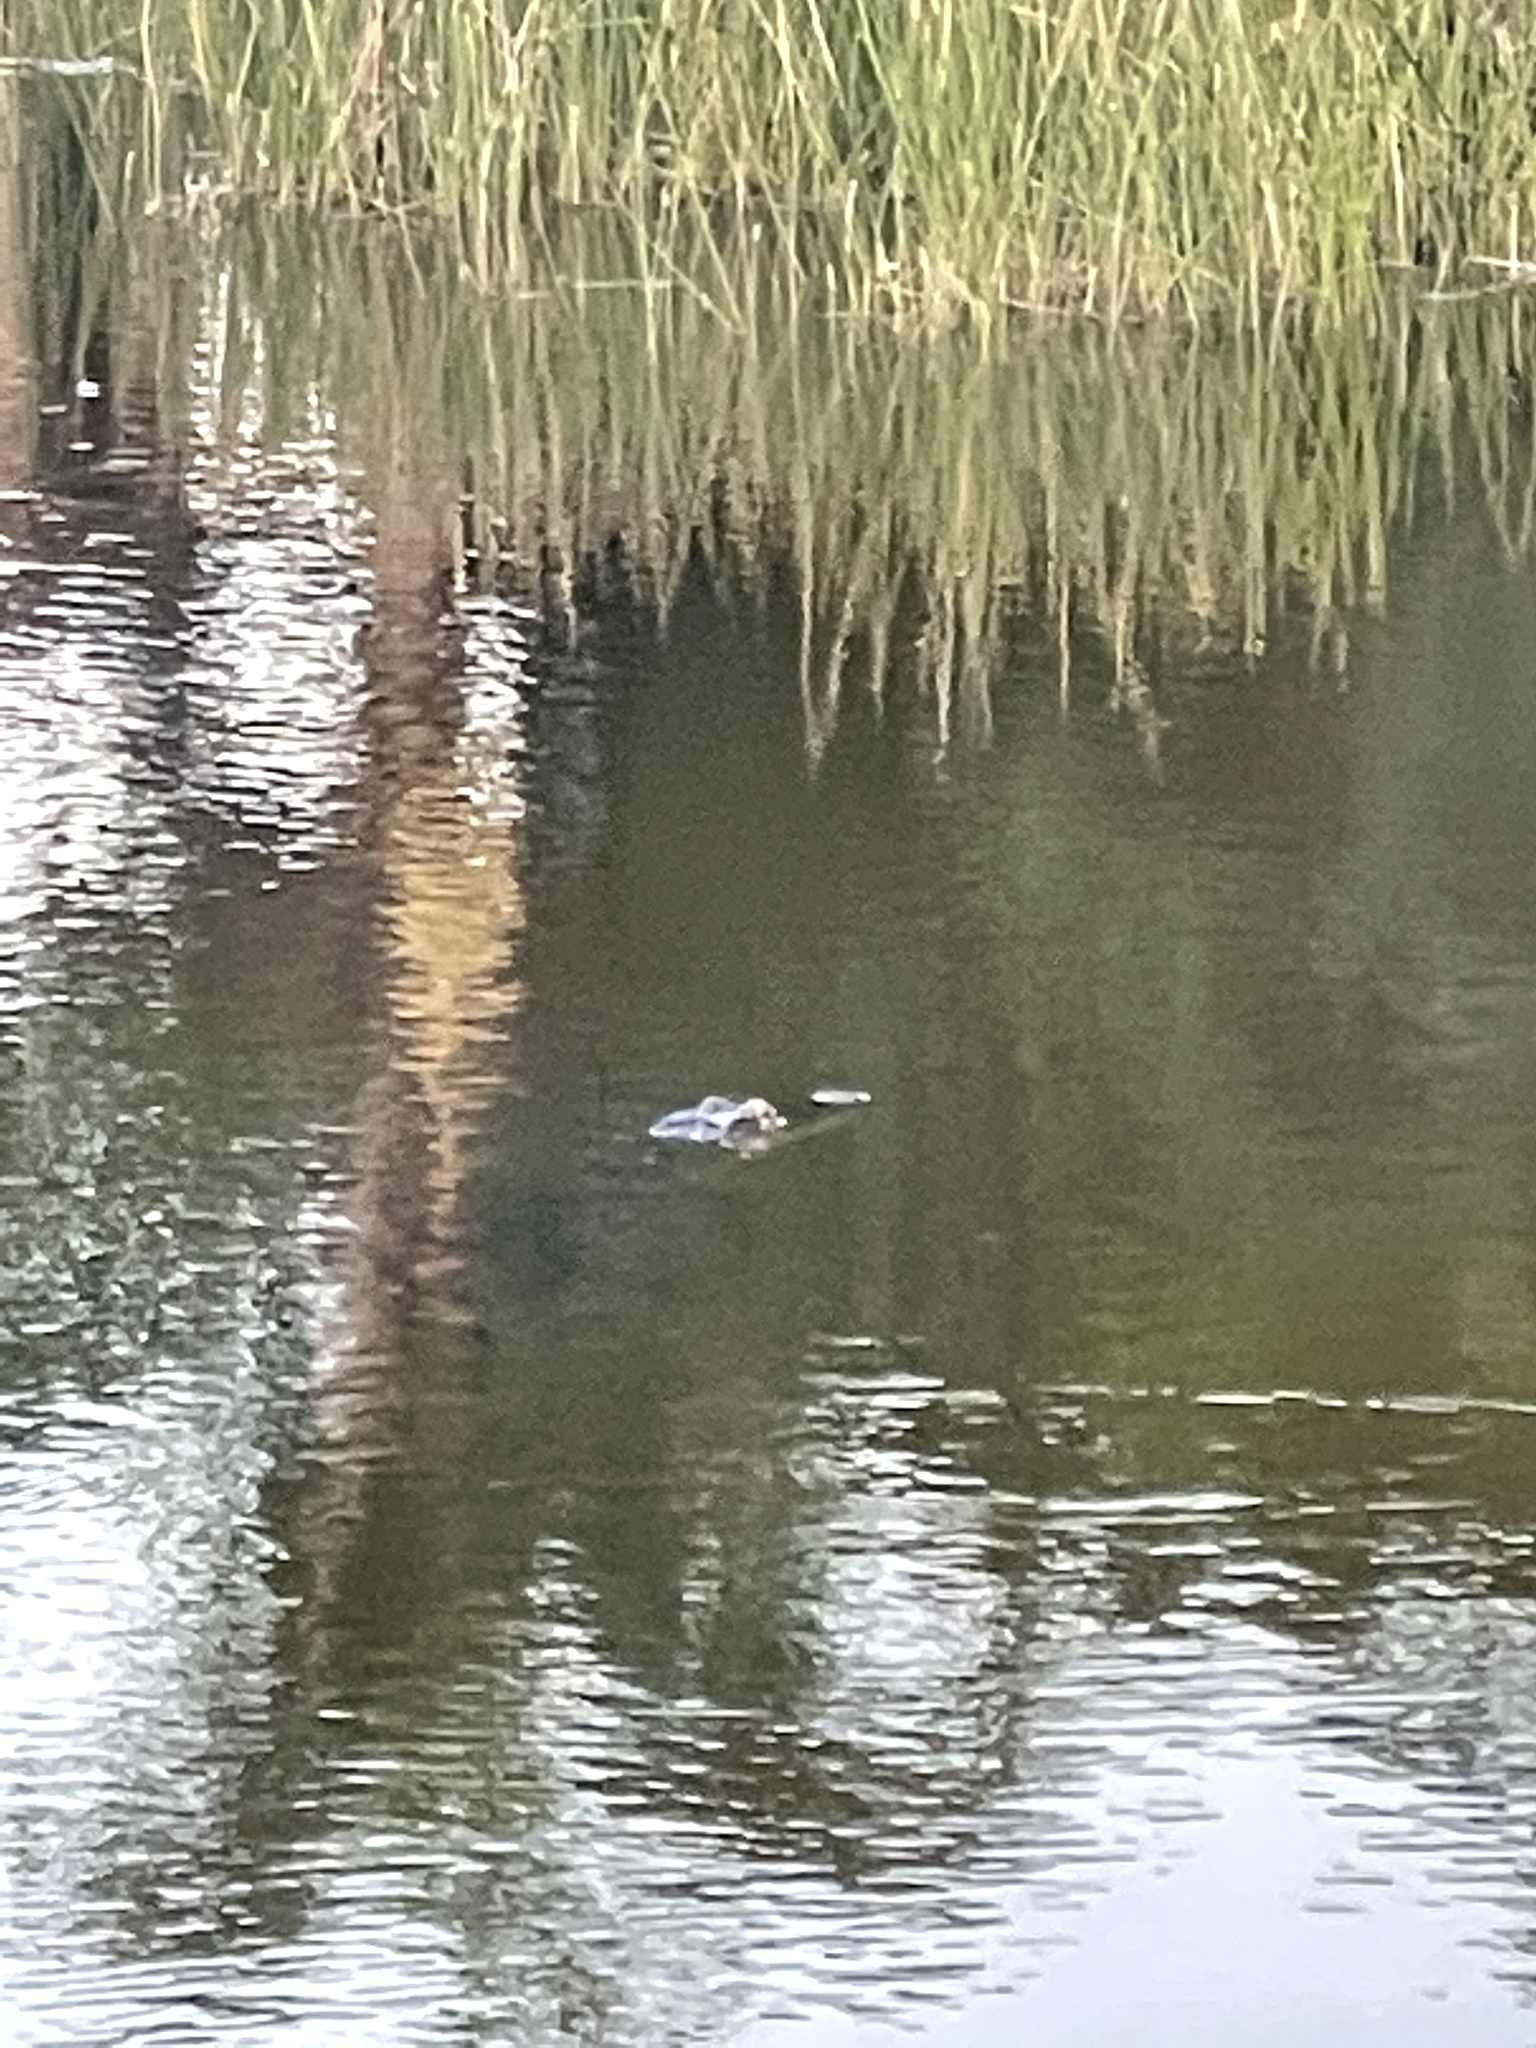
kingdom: Animalia
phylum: Chordata
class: Crocodylia
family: Alligatoridae
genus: Alligator
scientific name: Alligator mississippiensis
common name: American alligator
